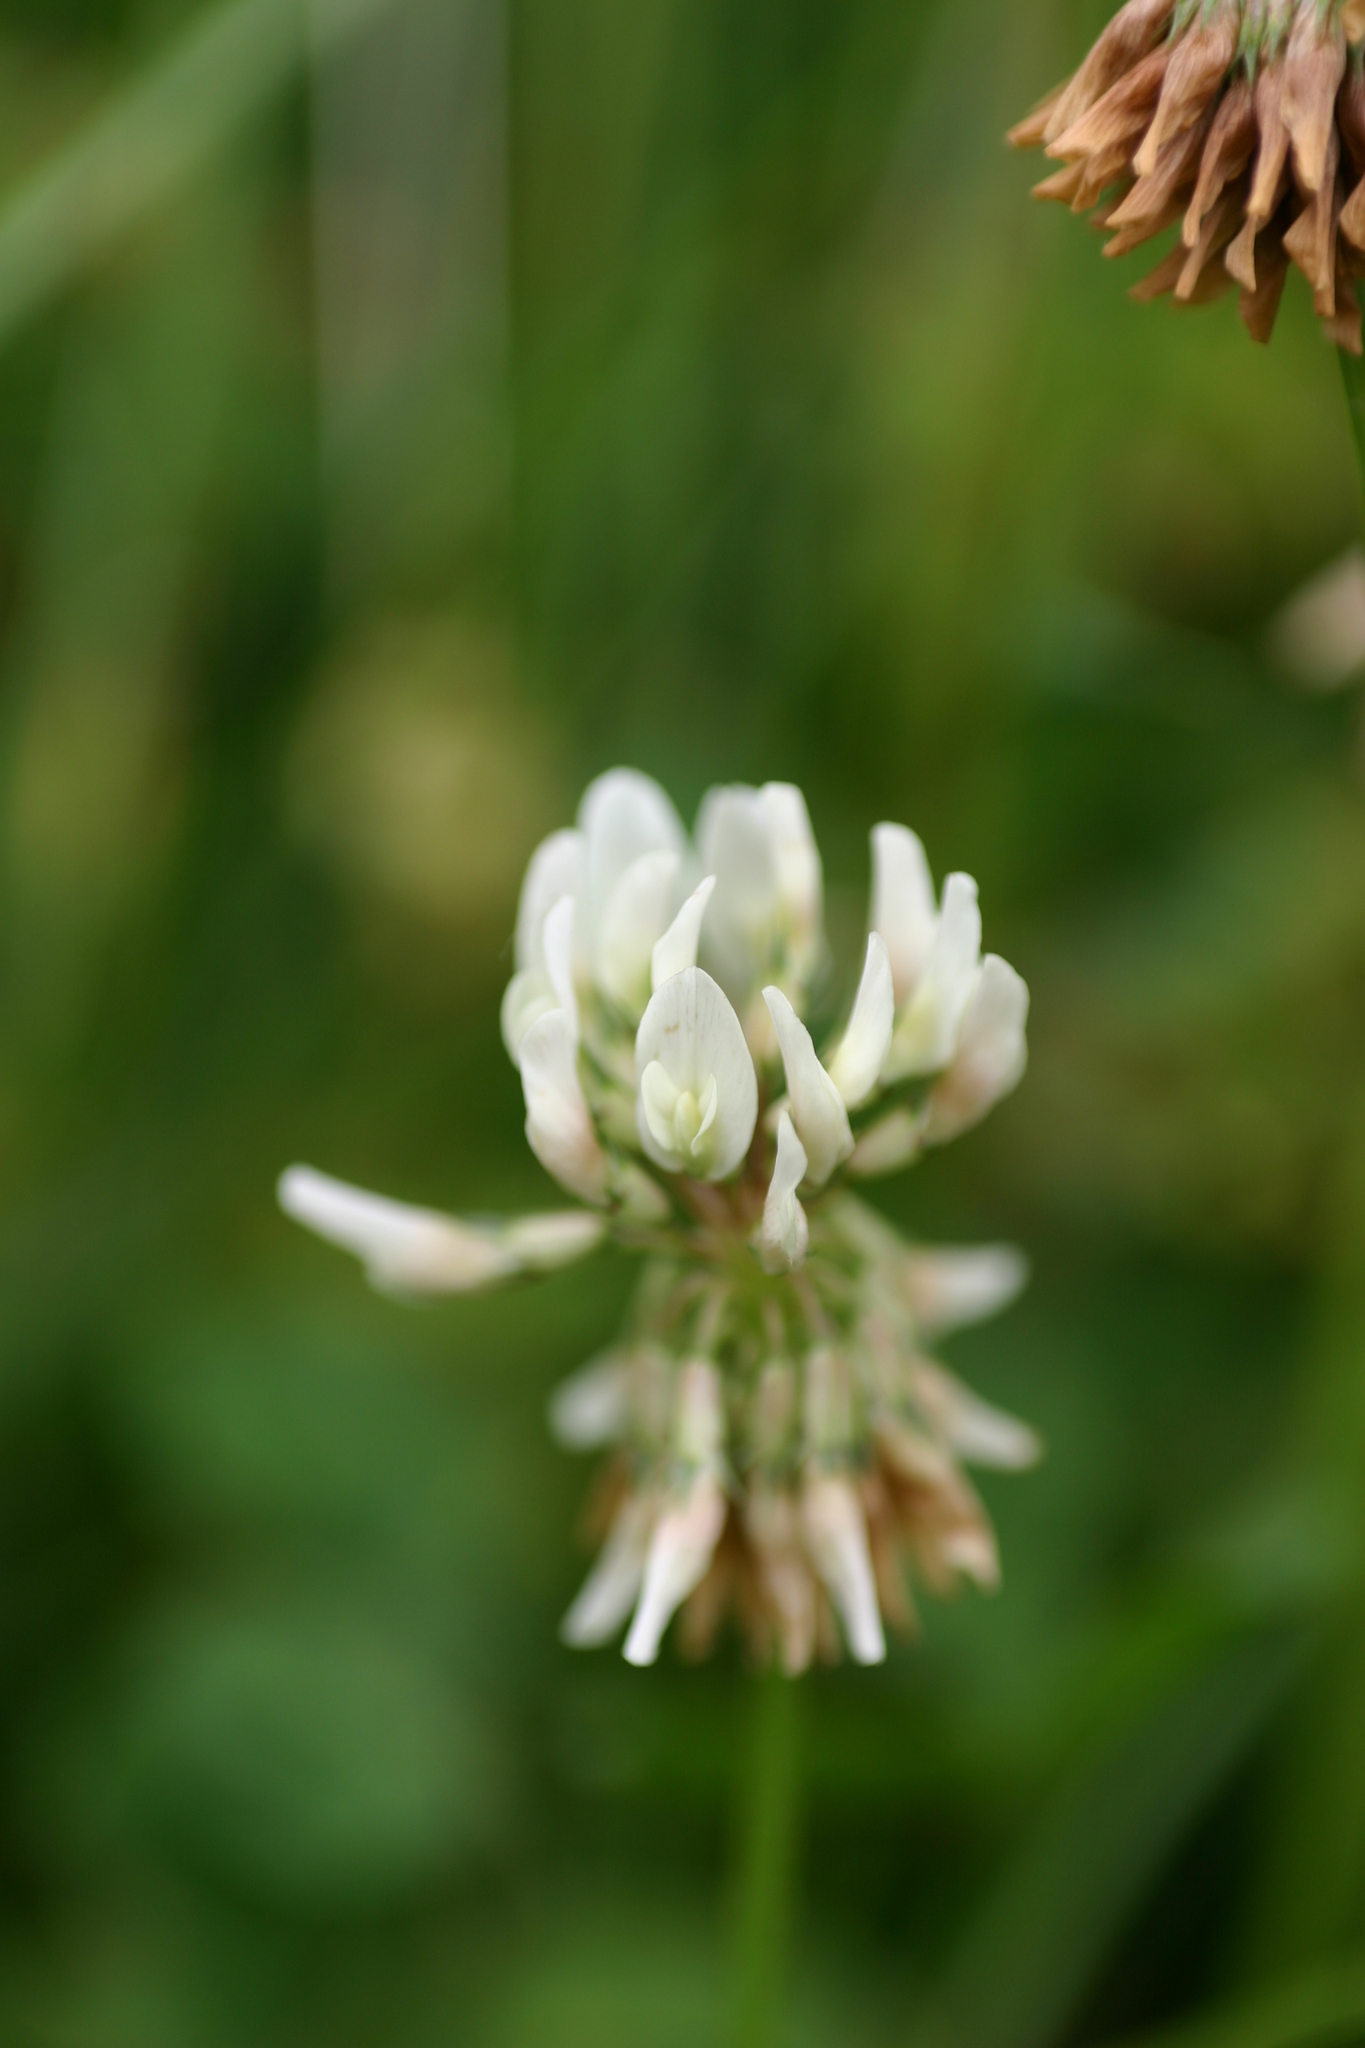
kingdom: Plantae
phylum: Tracheophyta
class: Magnoliopsida
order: Fabales
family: Fabaceae
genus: Trifolium
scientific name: Trifolium repens
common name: White clover
